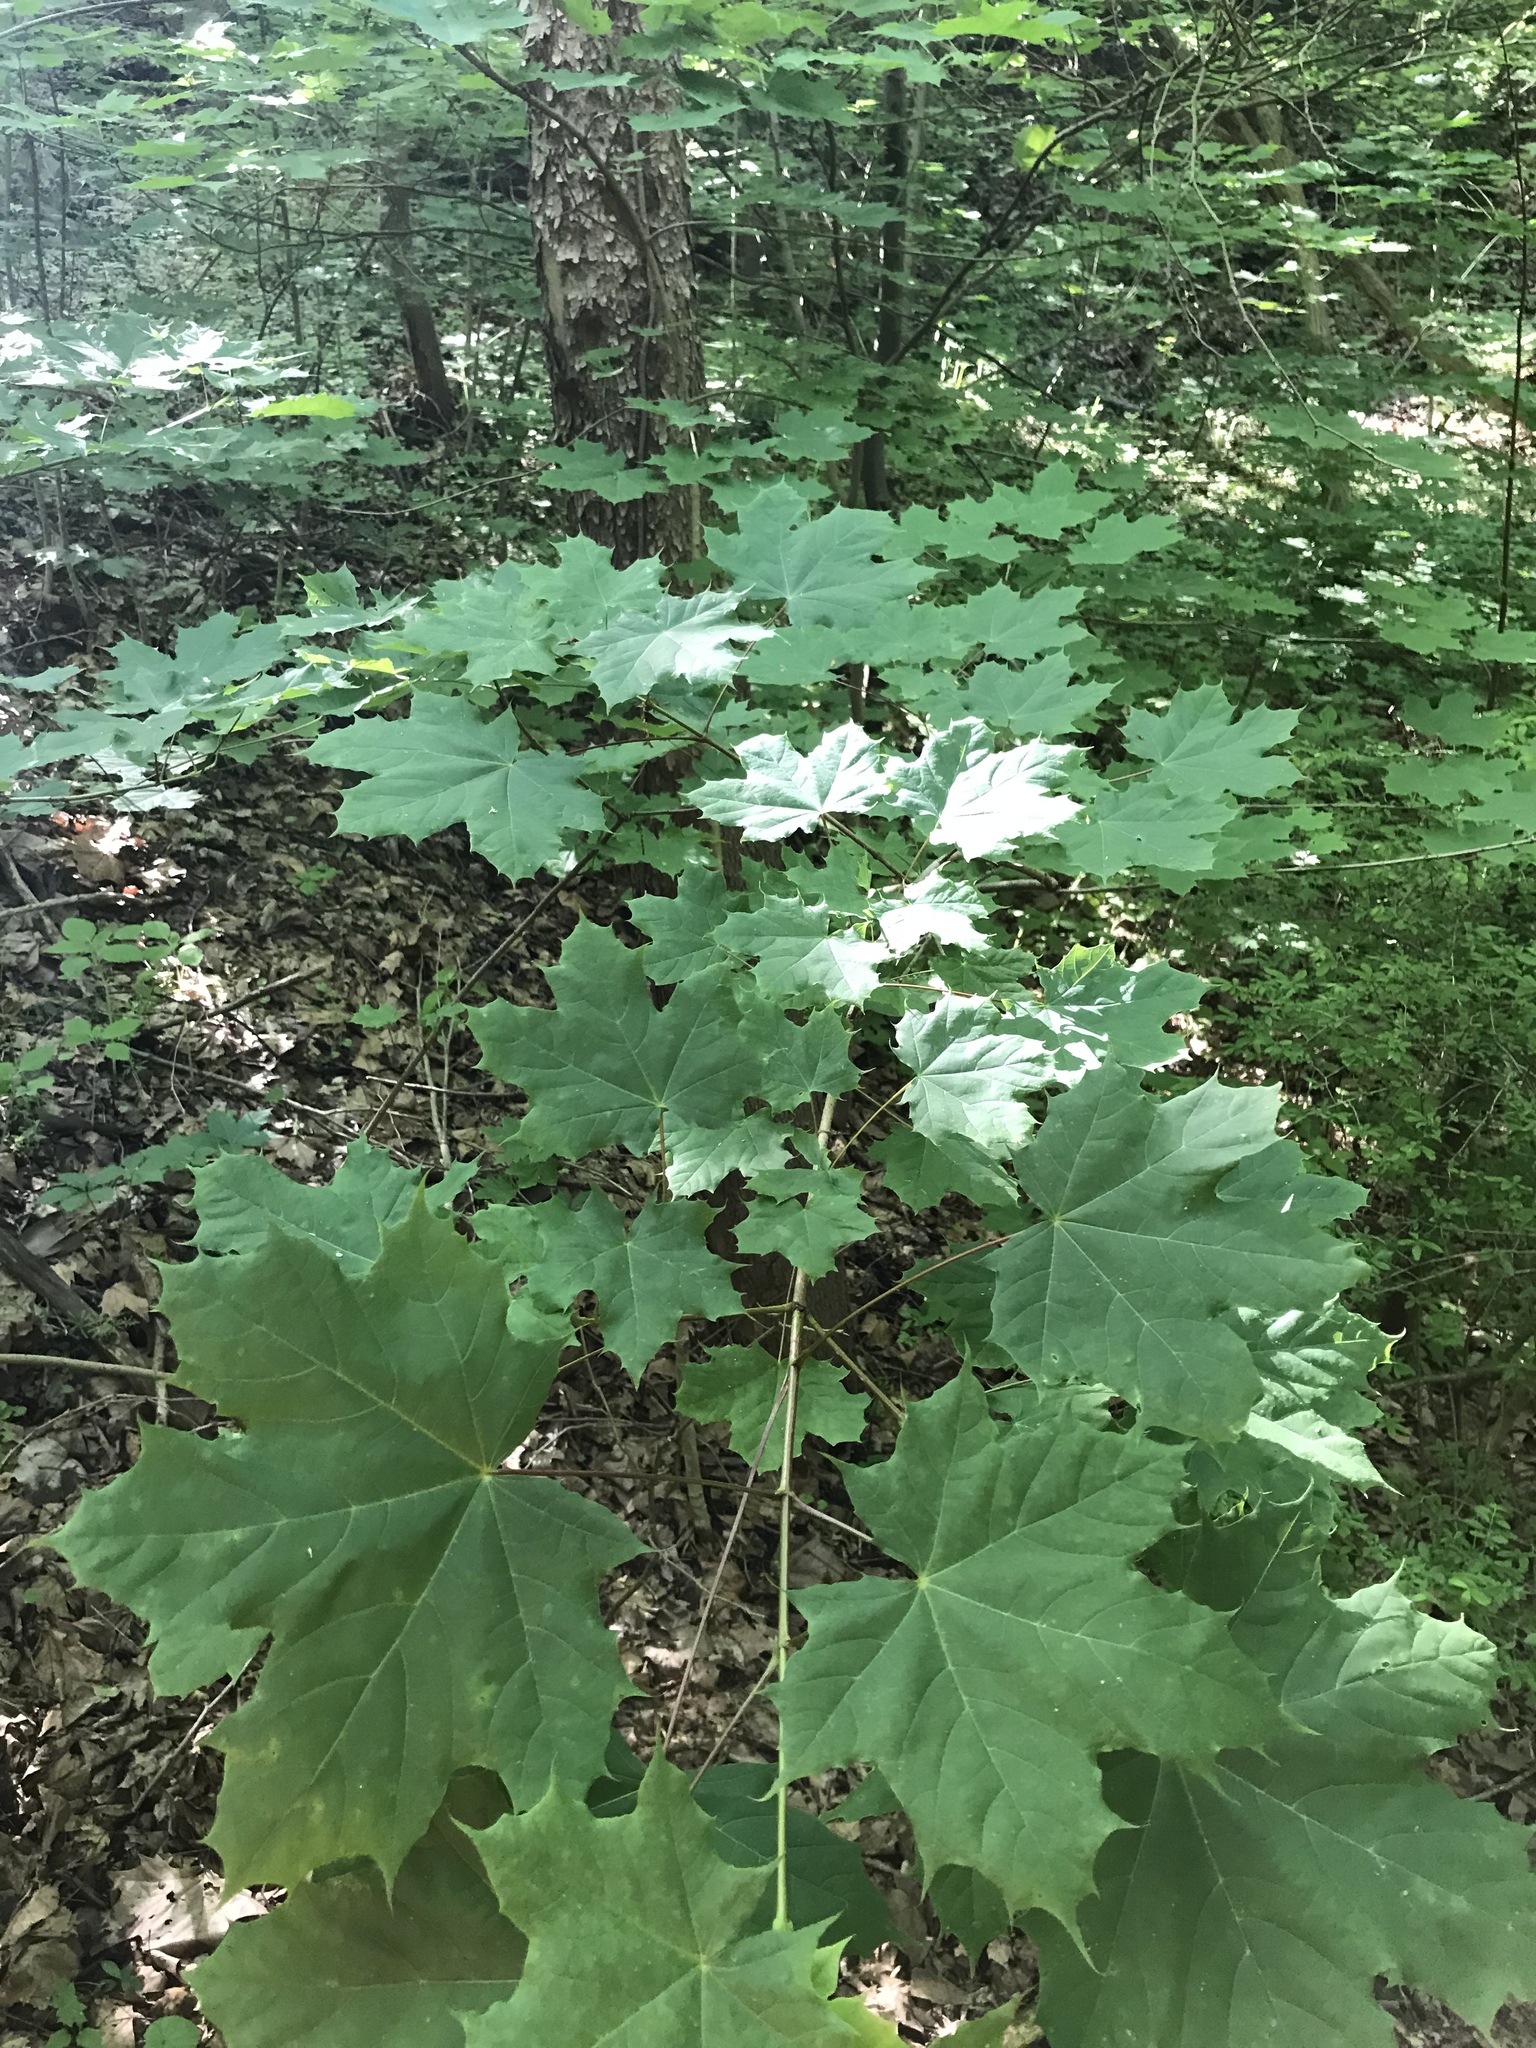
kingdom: Plantae
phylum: Tracheophyta
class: Magnoliopsida
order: Sapindales
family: Sapindaceae
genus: Acer
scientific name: Acer platanoides
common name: Norway maple
